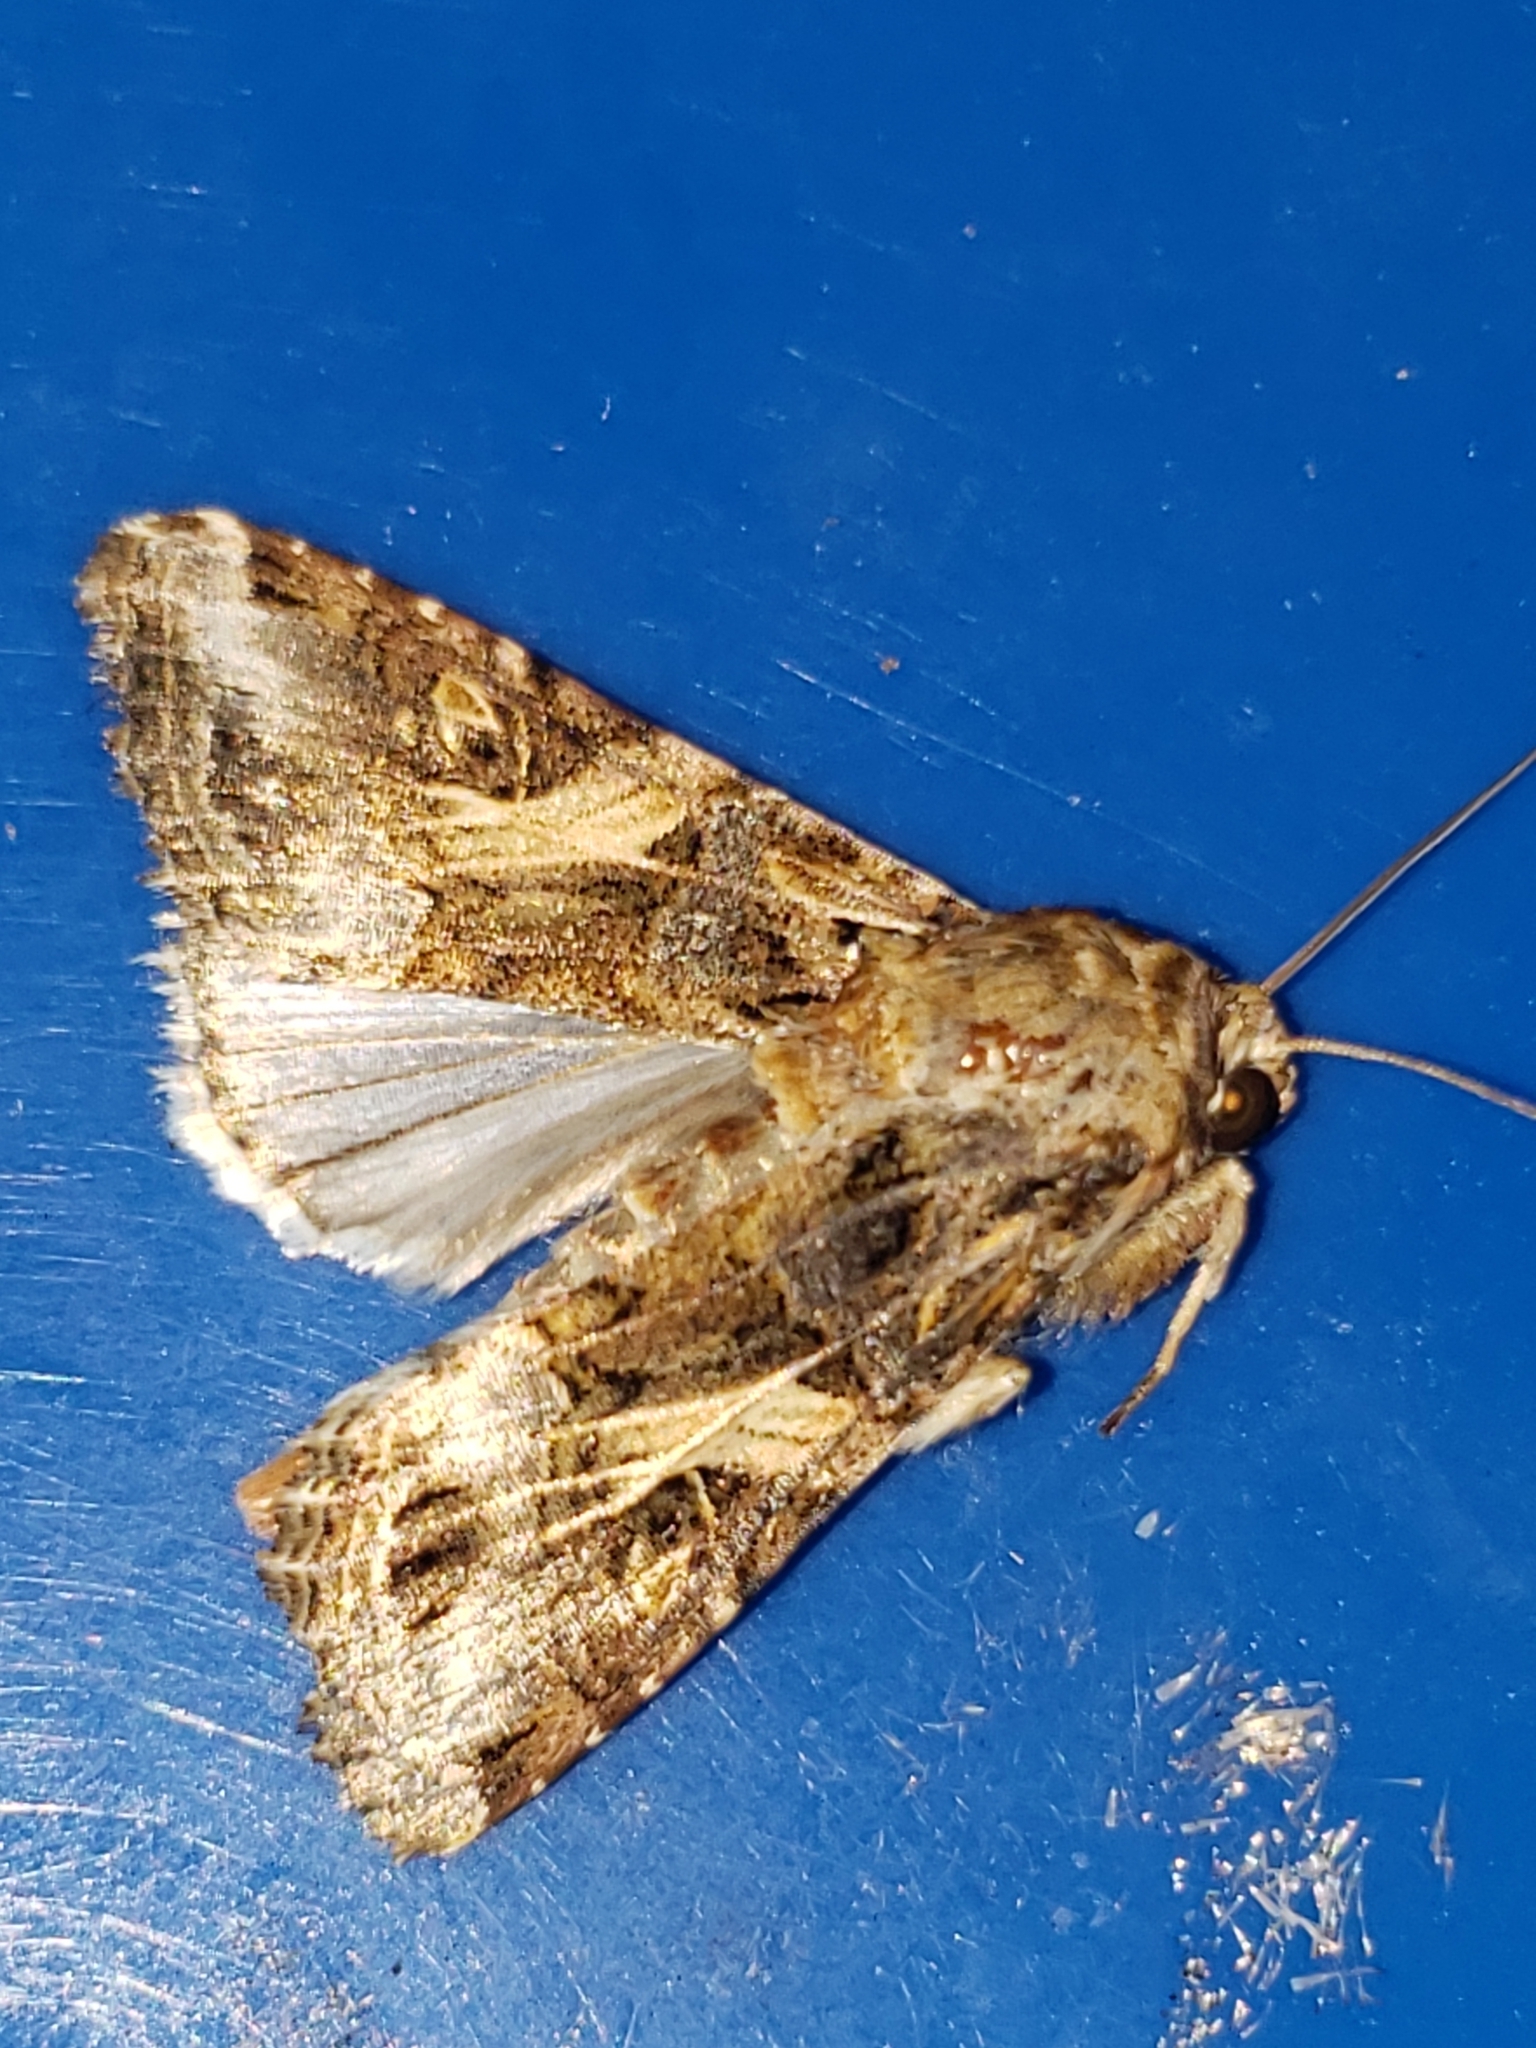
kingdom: Animalia
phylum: Arthropoda
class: Insecta
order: Lepidoptera
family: Noctuidae
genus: Spodoptera
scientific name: Spodoptera ornithogalli
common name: Yellow-striped armyworm
